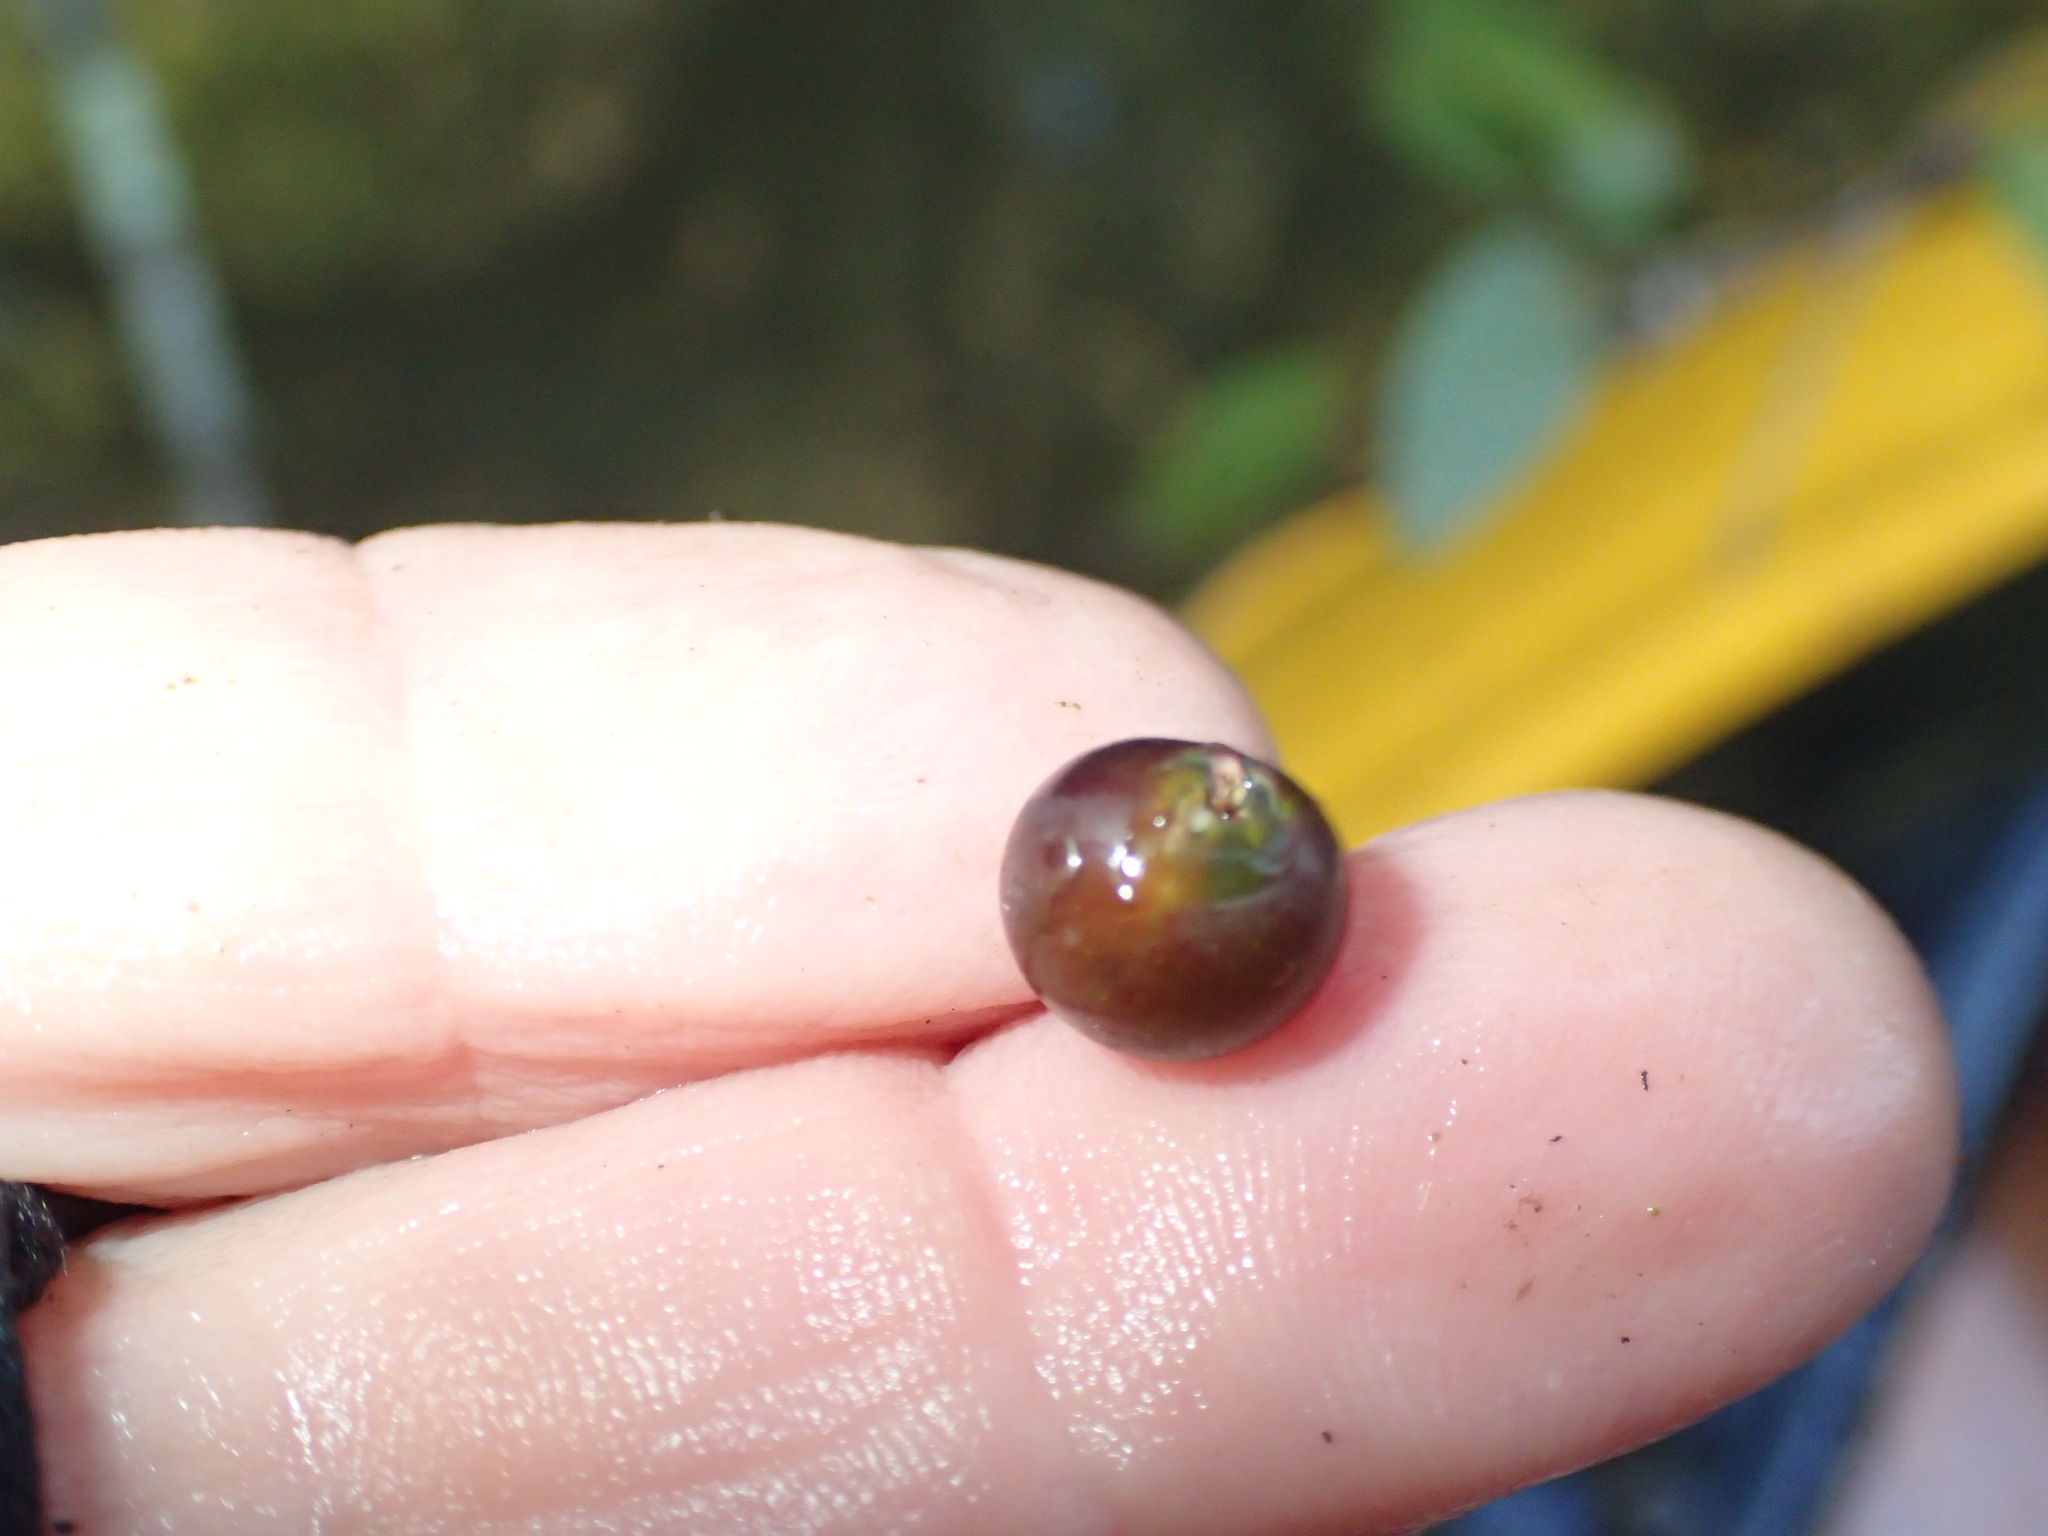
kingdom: Plantae
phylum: Tracheophyta
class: Magnoliopsida
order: Vitales
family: Vitaceae
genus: Vitis
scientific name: Vitis vulpina
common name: Frost grape
